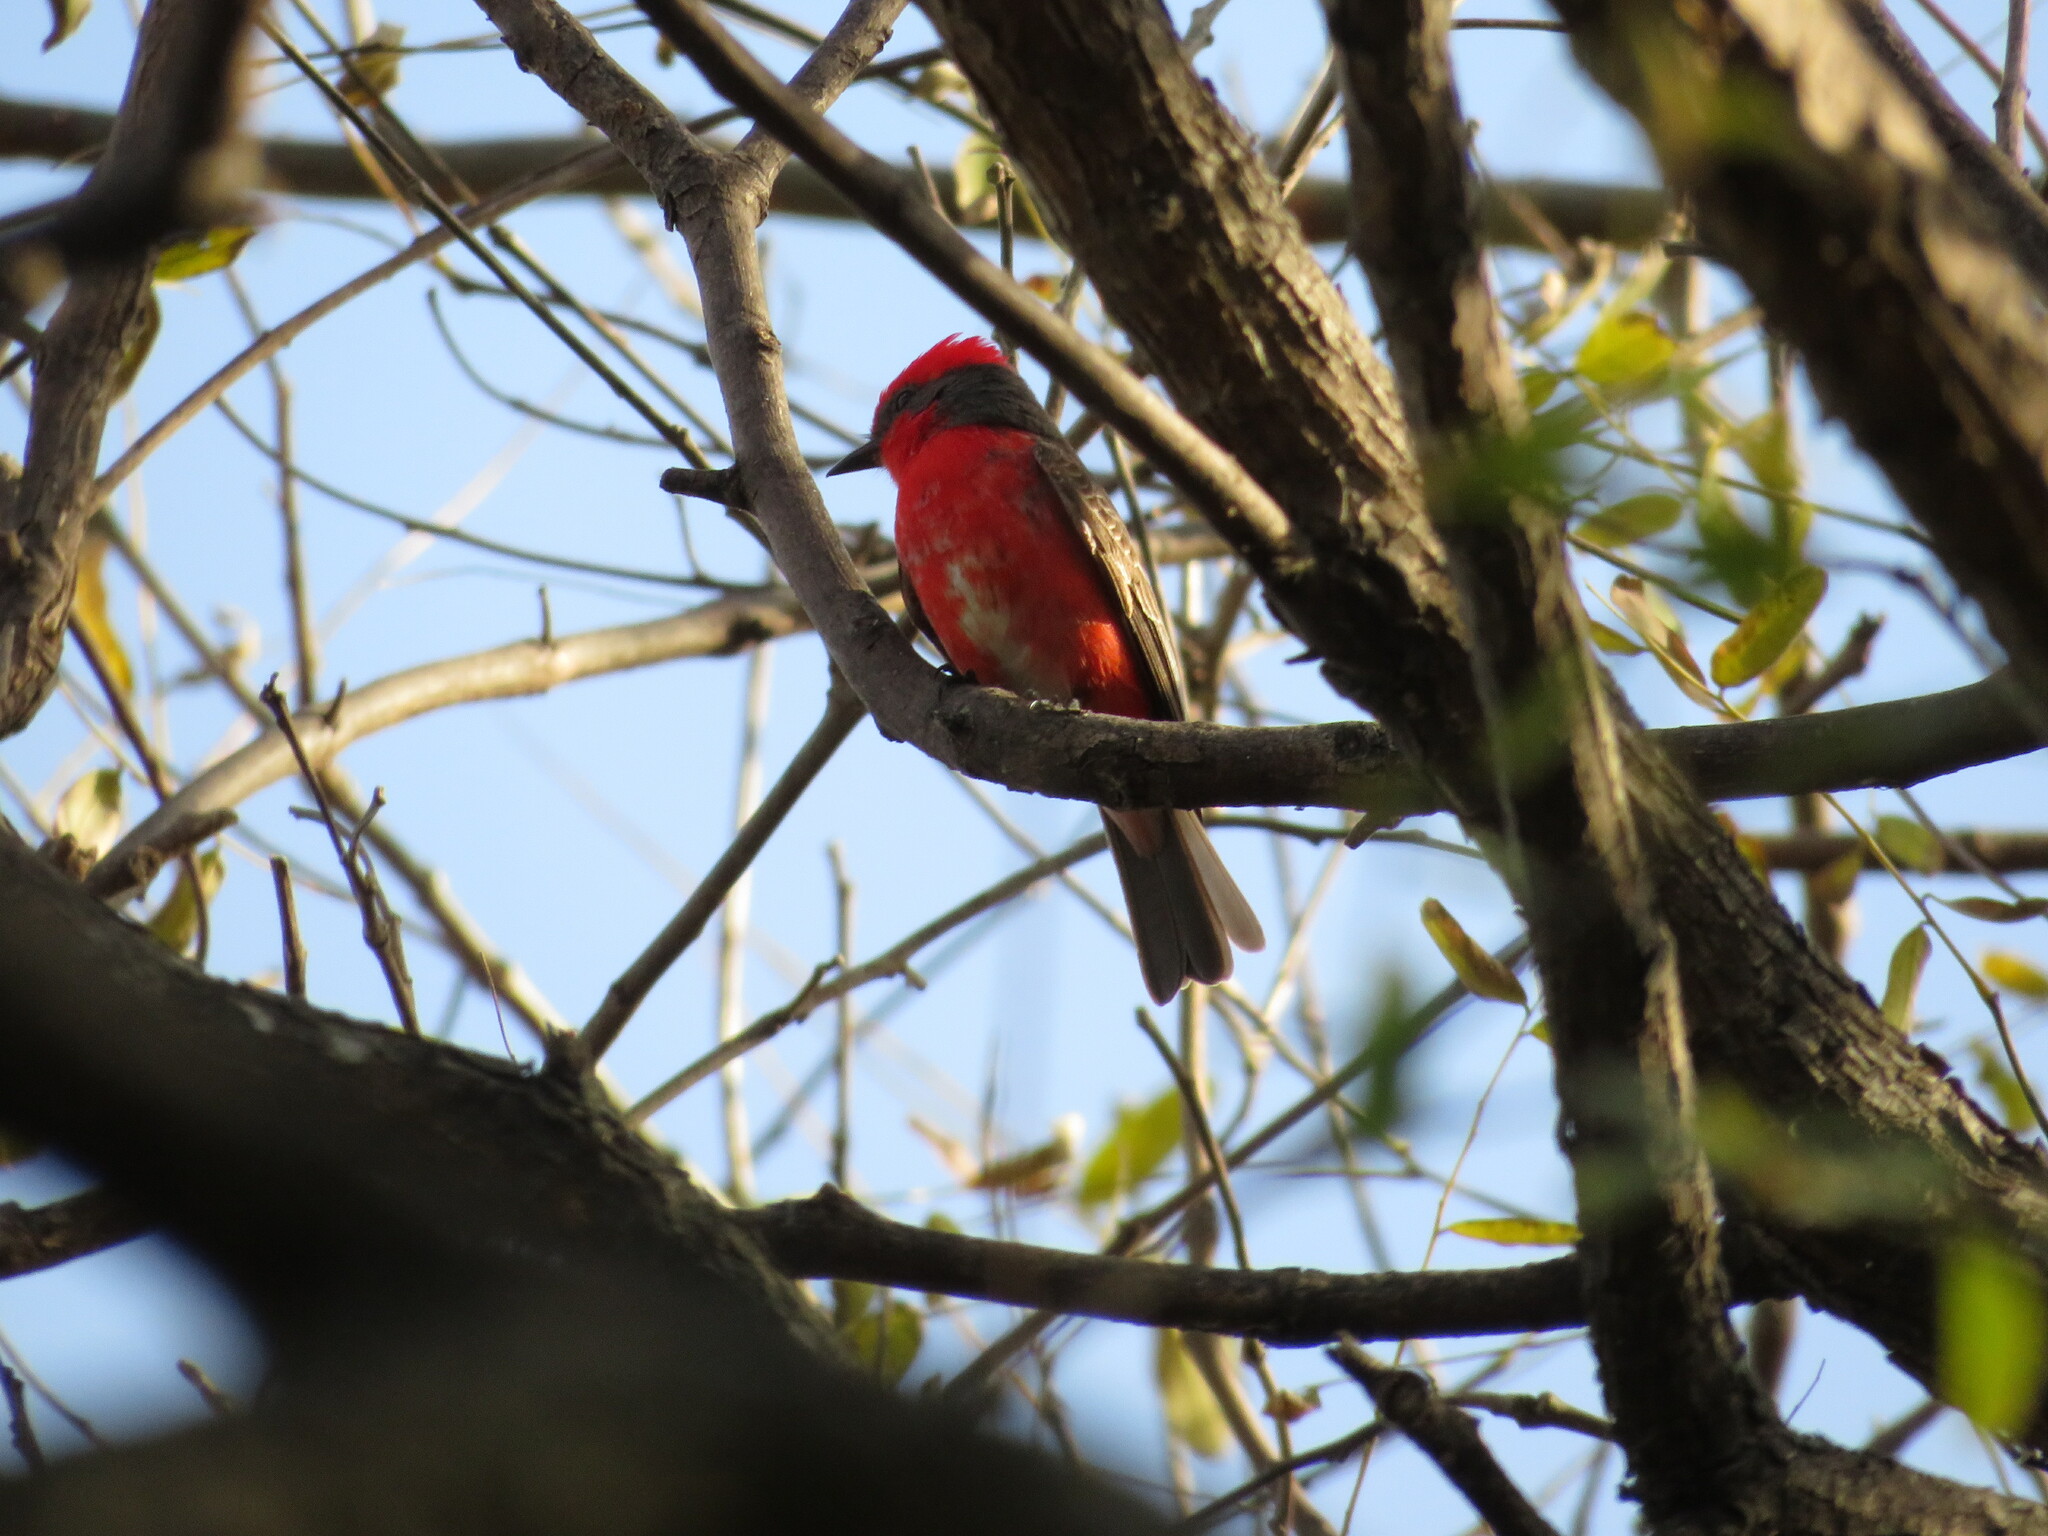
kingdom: Animalia
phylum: Chordata
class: Aves
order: Passeriformes
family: Tyrannidae
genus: Pyrocephalus
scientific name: Pyrocephalus rubinus
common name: Vermilion flycatcher
